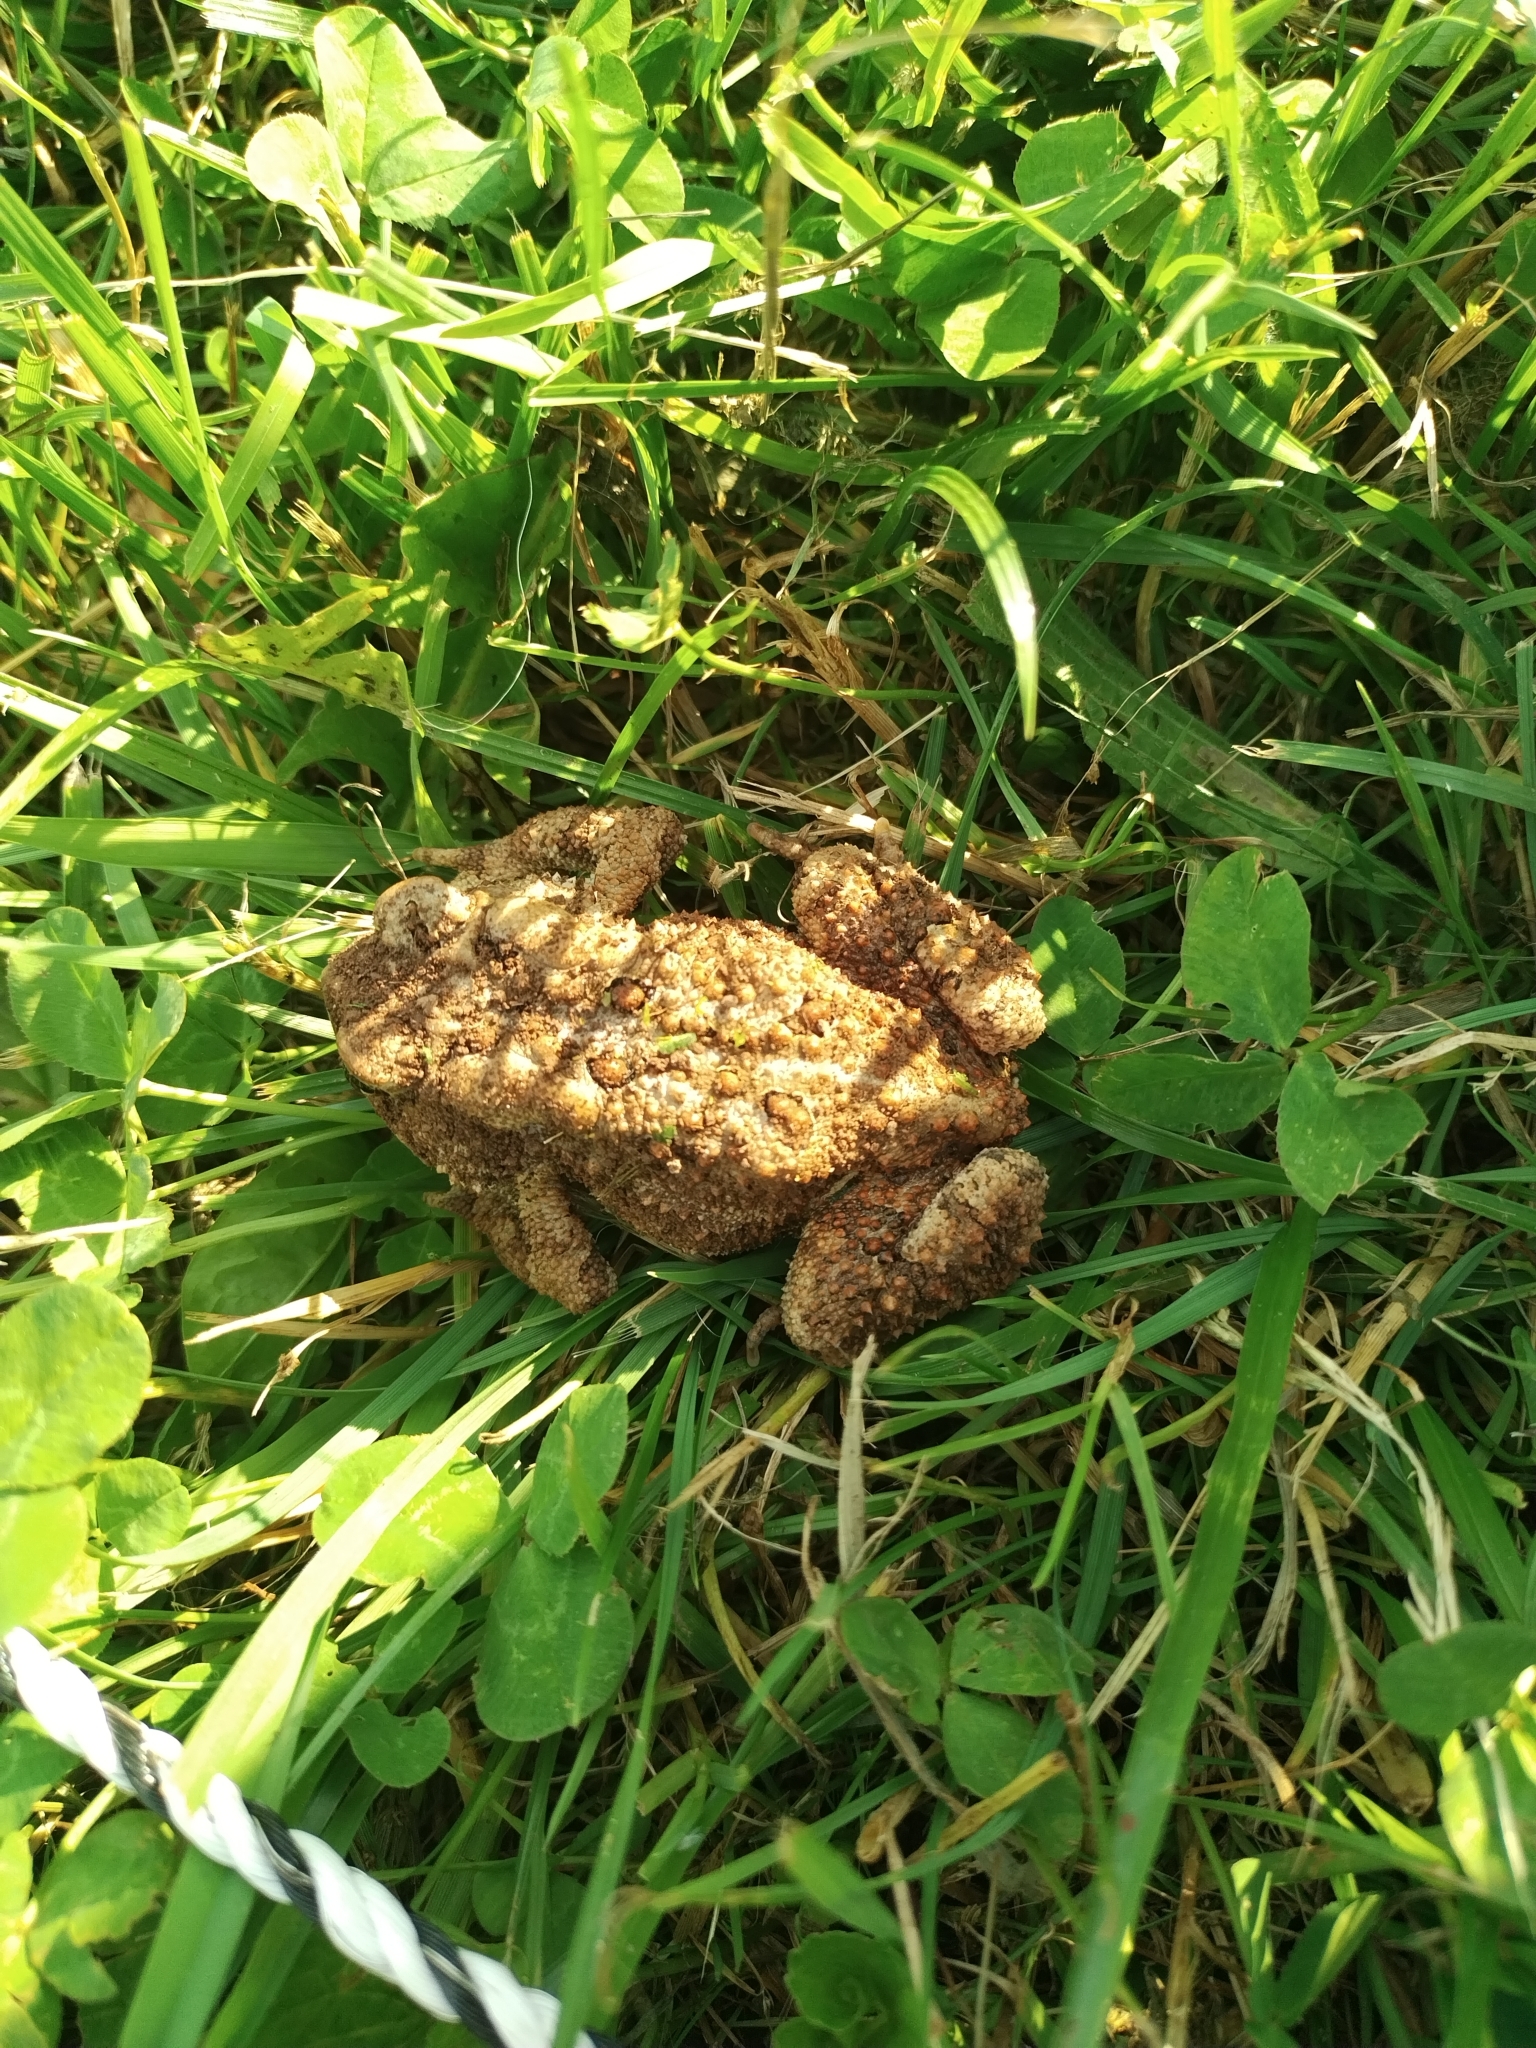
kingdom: Animalia
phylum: Chordata
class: Amphibia
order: Anura
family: Bufonidae
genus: Anaxyrus
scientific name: Anaxyrus americanus
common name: American toad
